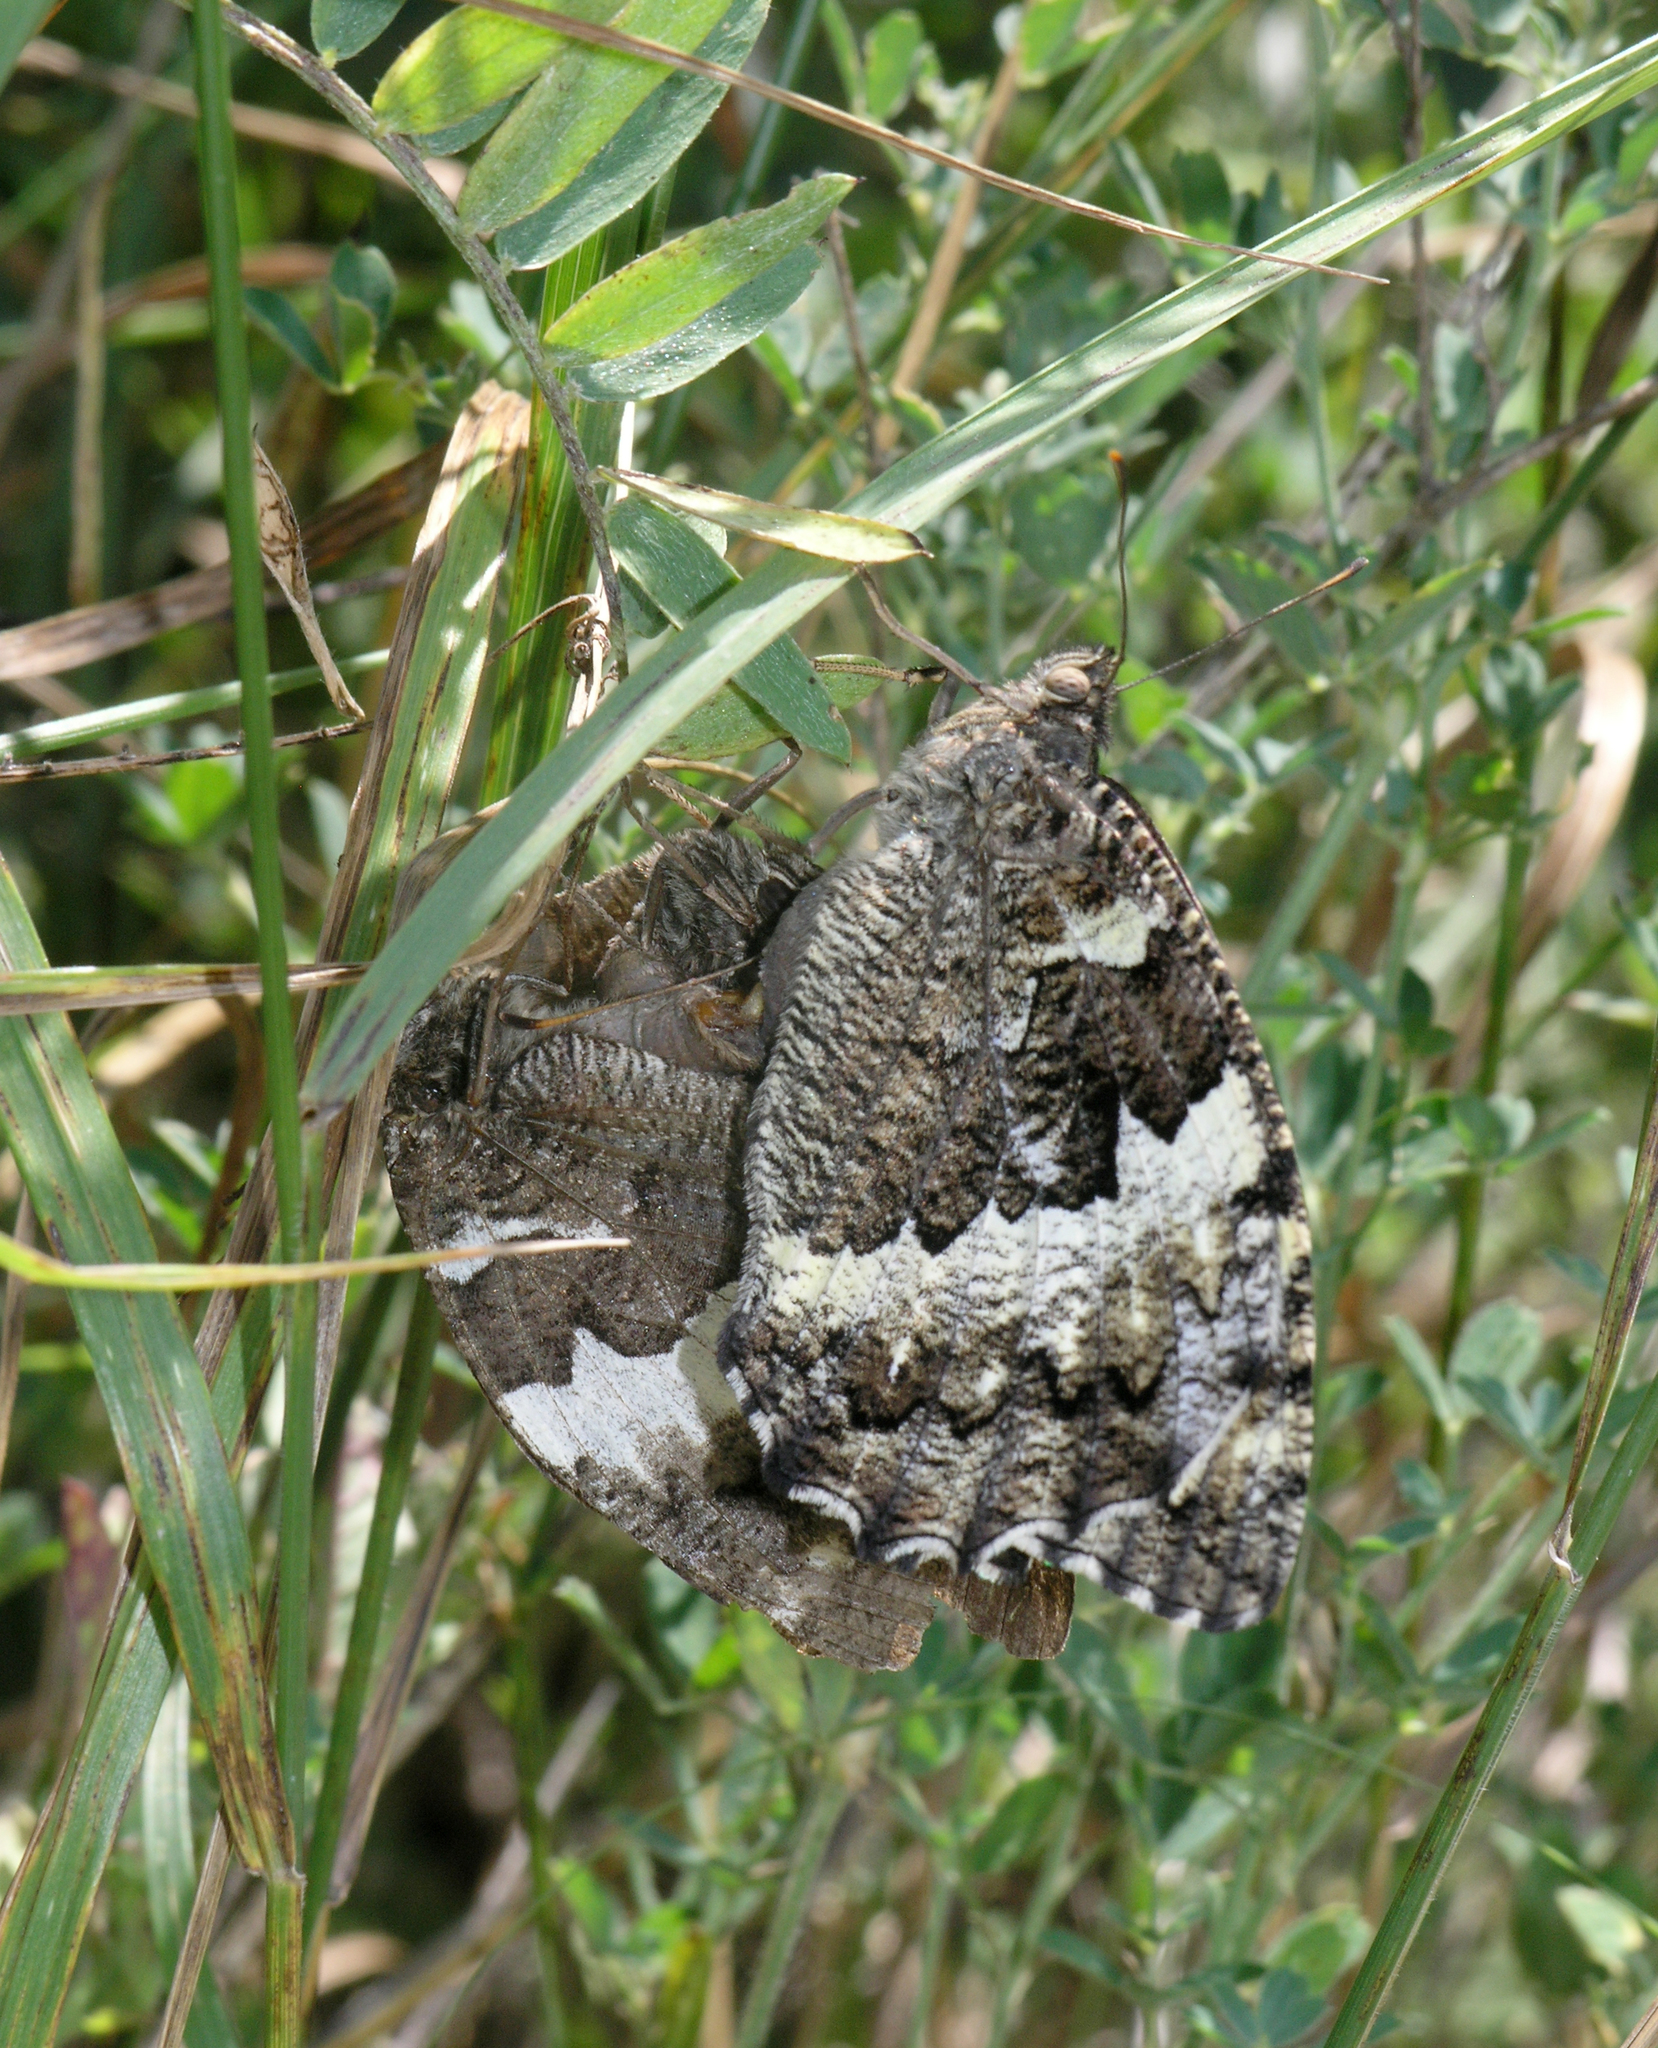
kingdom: Animalia
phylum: Arthropoda
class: Insecta
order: Lepidoptera
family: Lycaenidae
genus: Loweia
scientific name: Loweia tityrus
